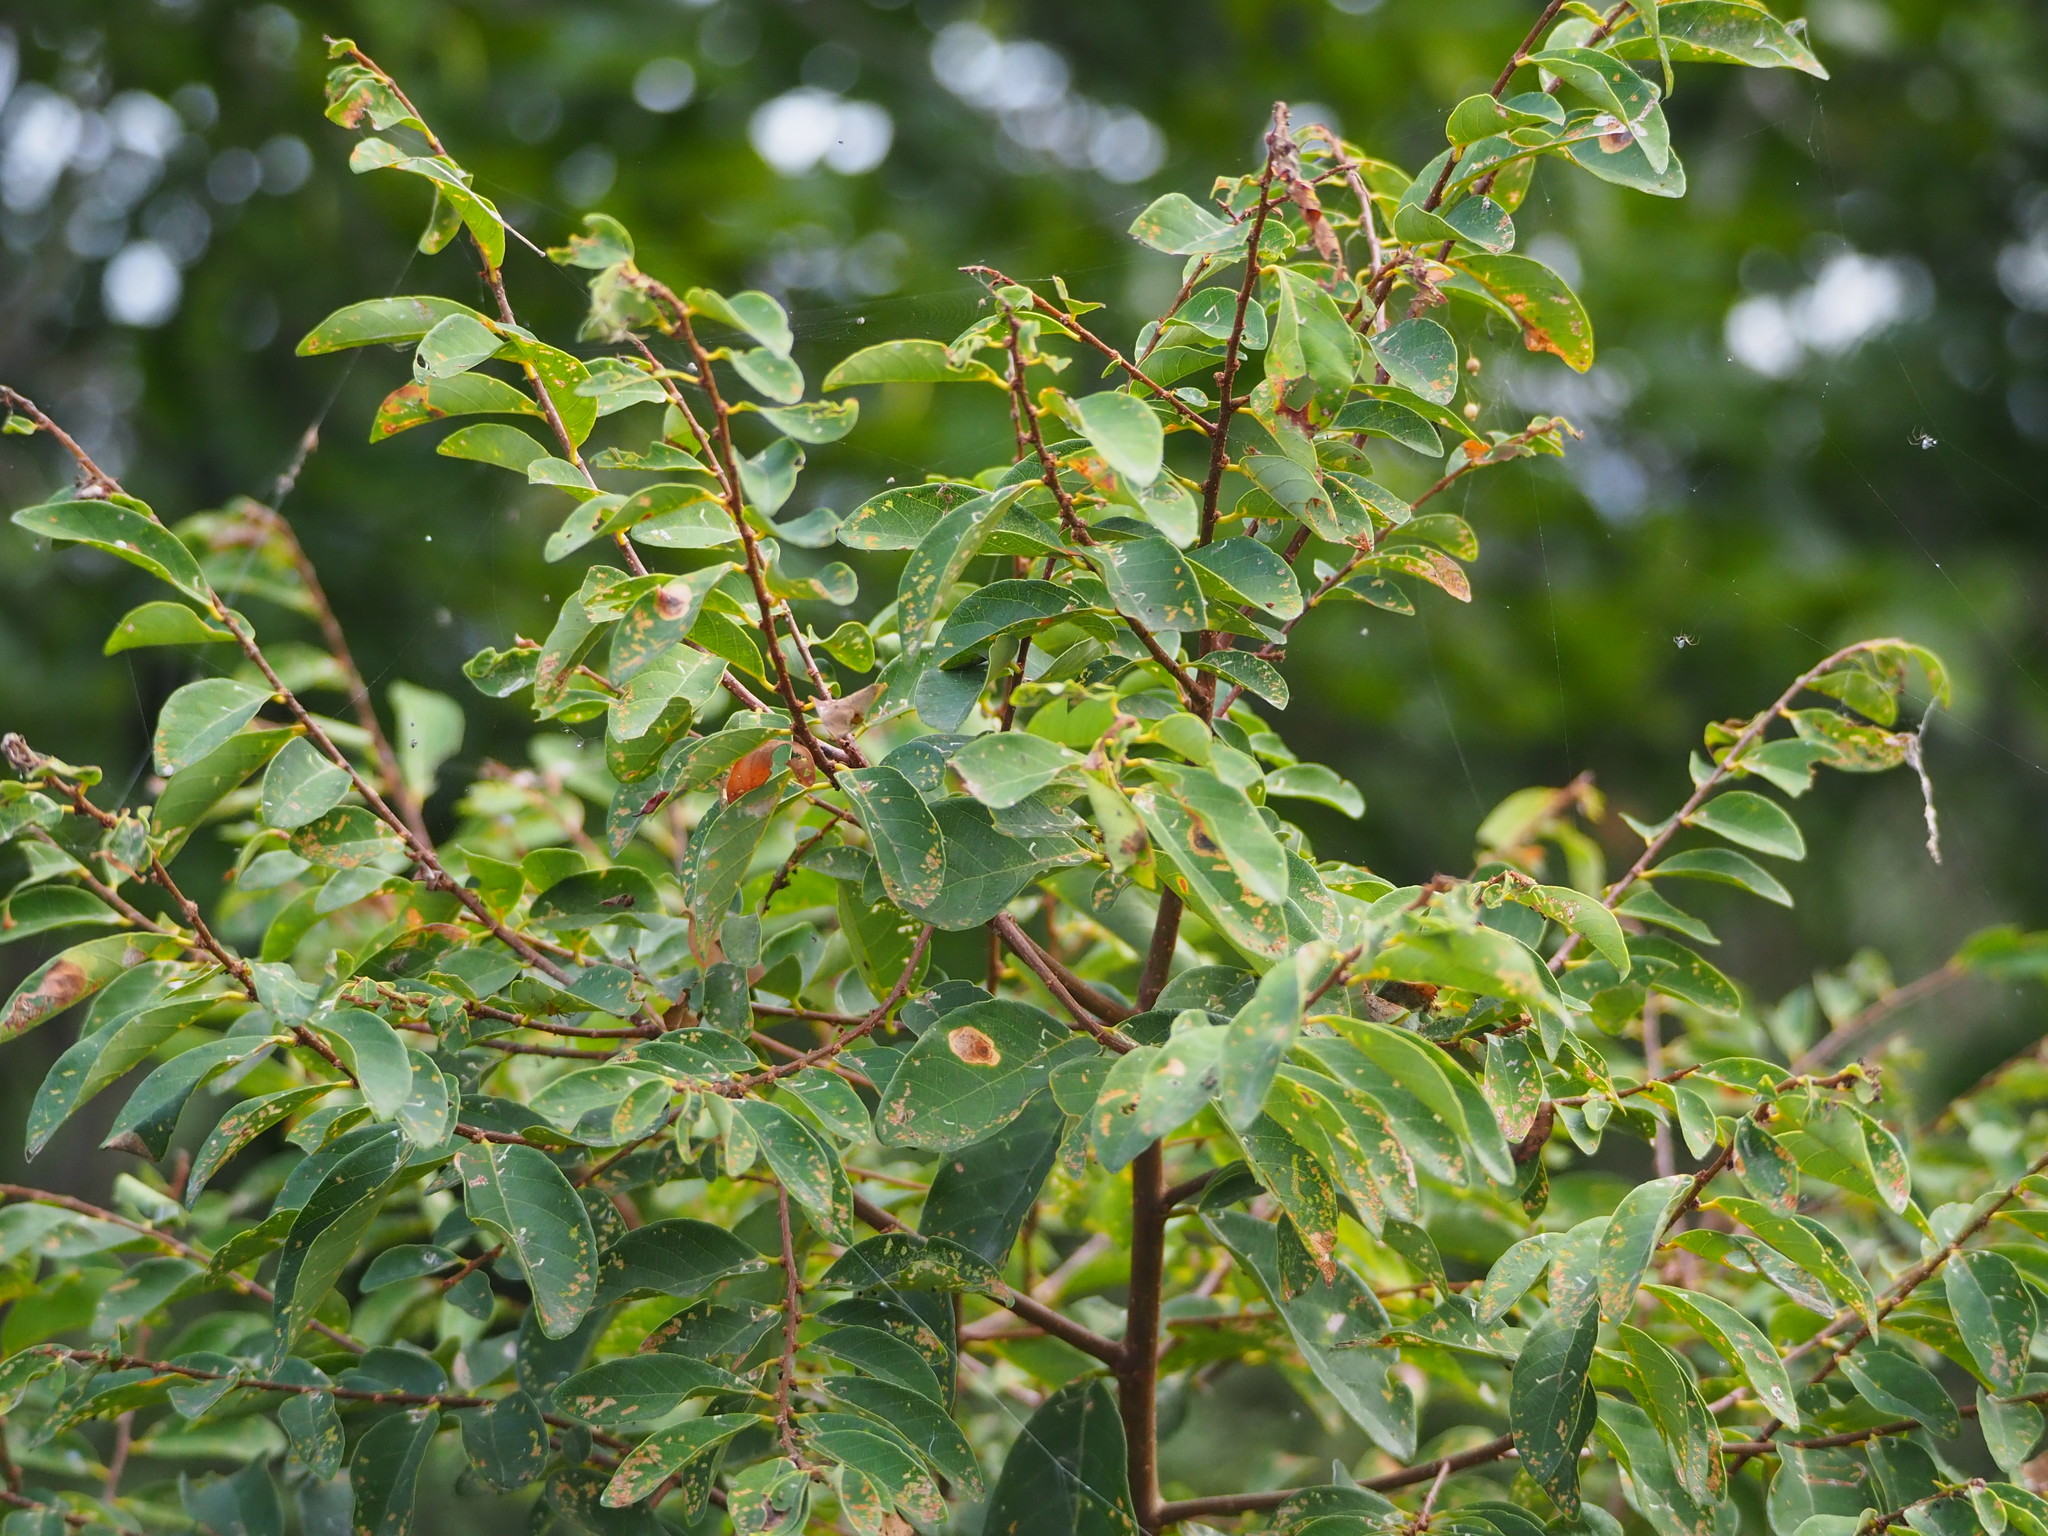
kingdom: Plantae
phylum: Tracheophyta
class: Magnoliopsida
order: Malpighiales
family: Phyllanthaceae
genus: Bridelia
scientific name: Bridelia tomentosa
